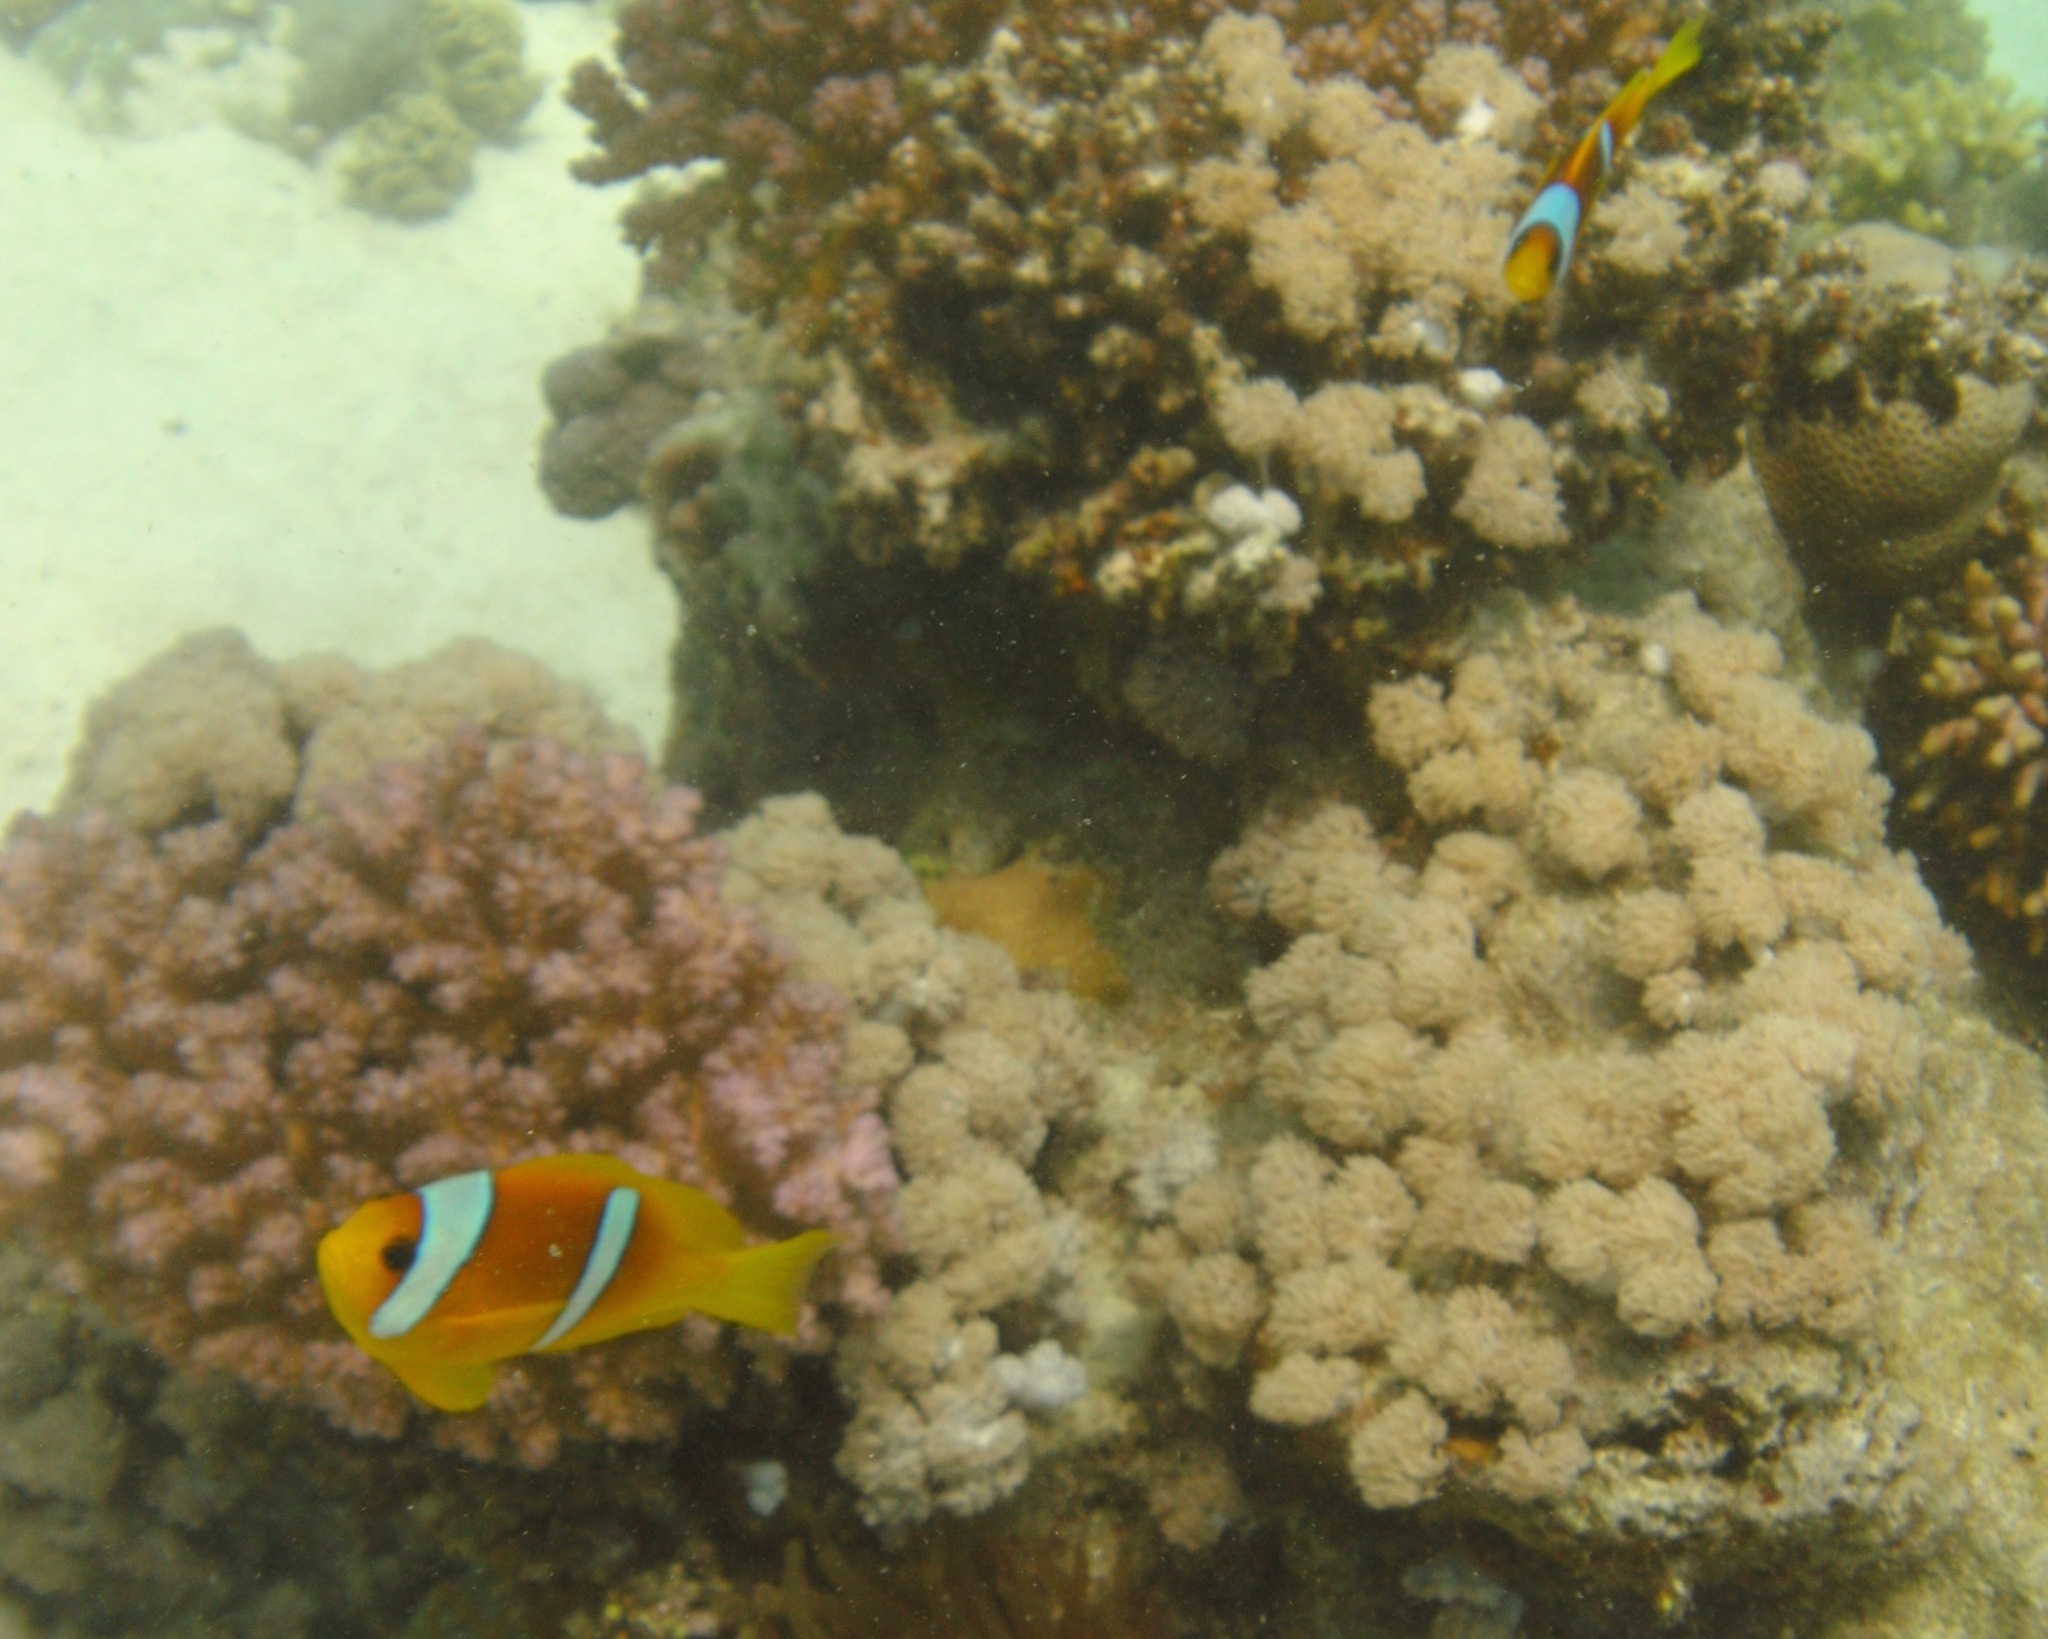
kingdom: Animalia
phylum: Chordata
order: Perciformes
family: Pomacentridae
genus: Amphiprion
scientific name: Amphiprion bicinctus
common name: Two-banded anemonefish
